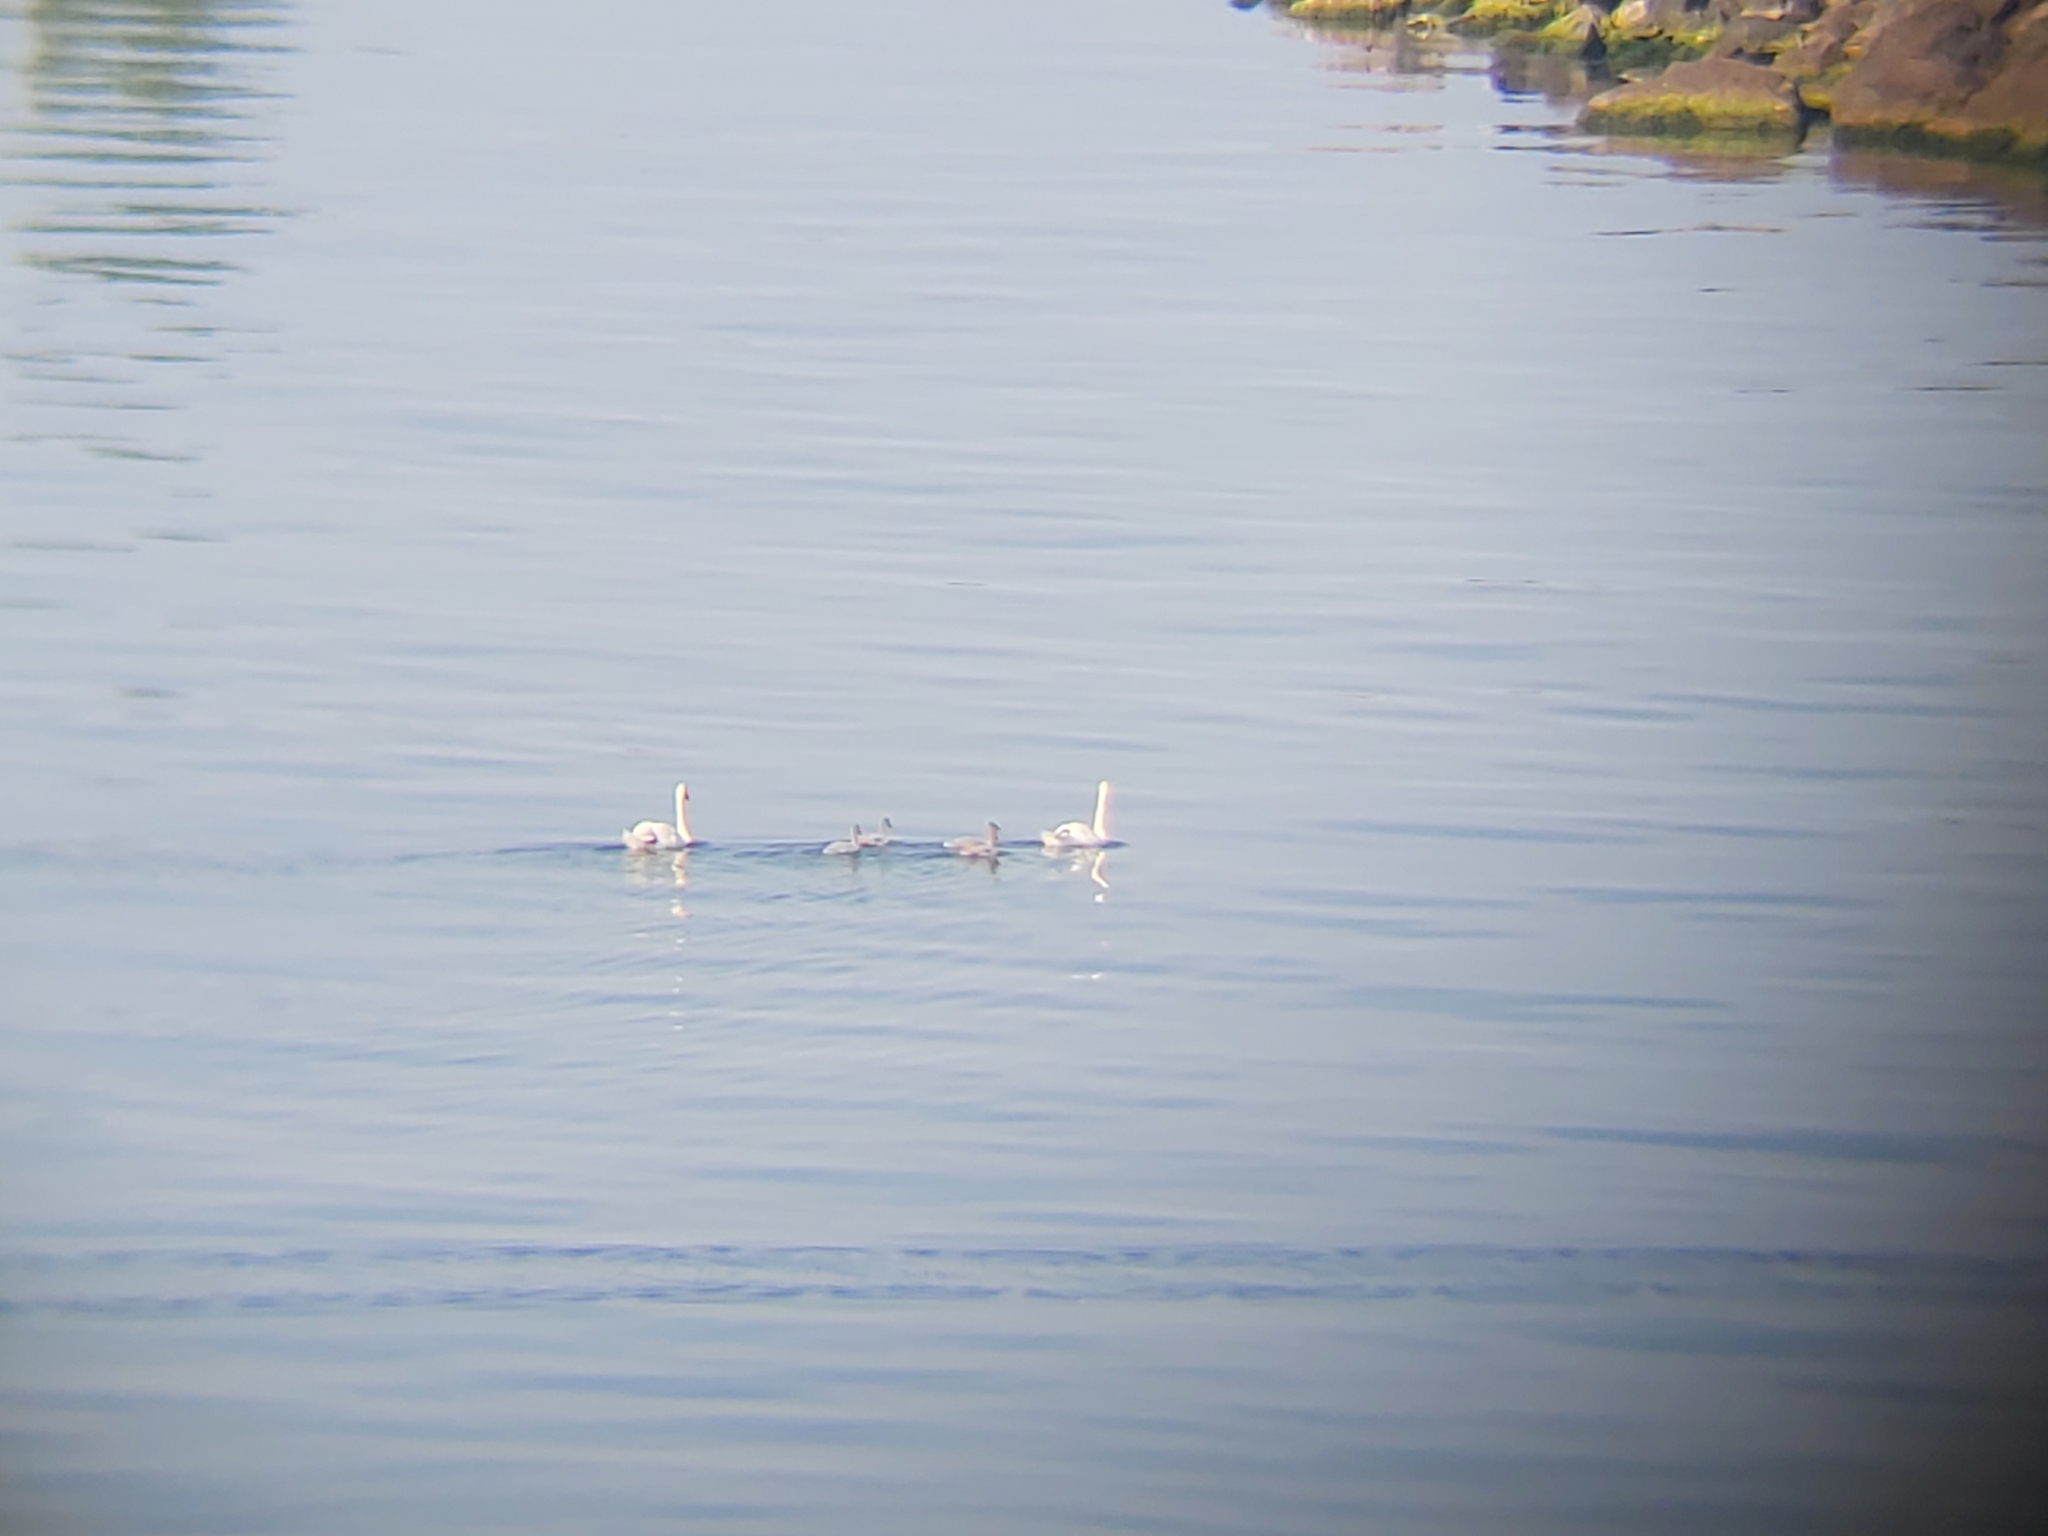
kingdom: Animalia
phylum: Chordata
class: Aves
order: Anseriformes
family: Anatidae
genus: Cygnus
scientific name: Cygnus olor
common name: Mute swan
